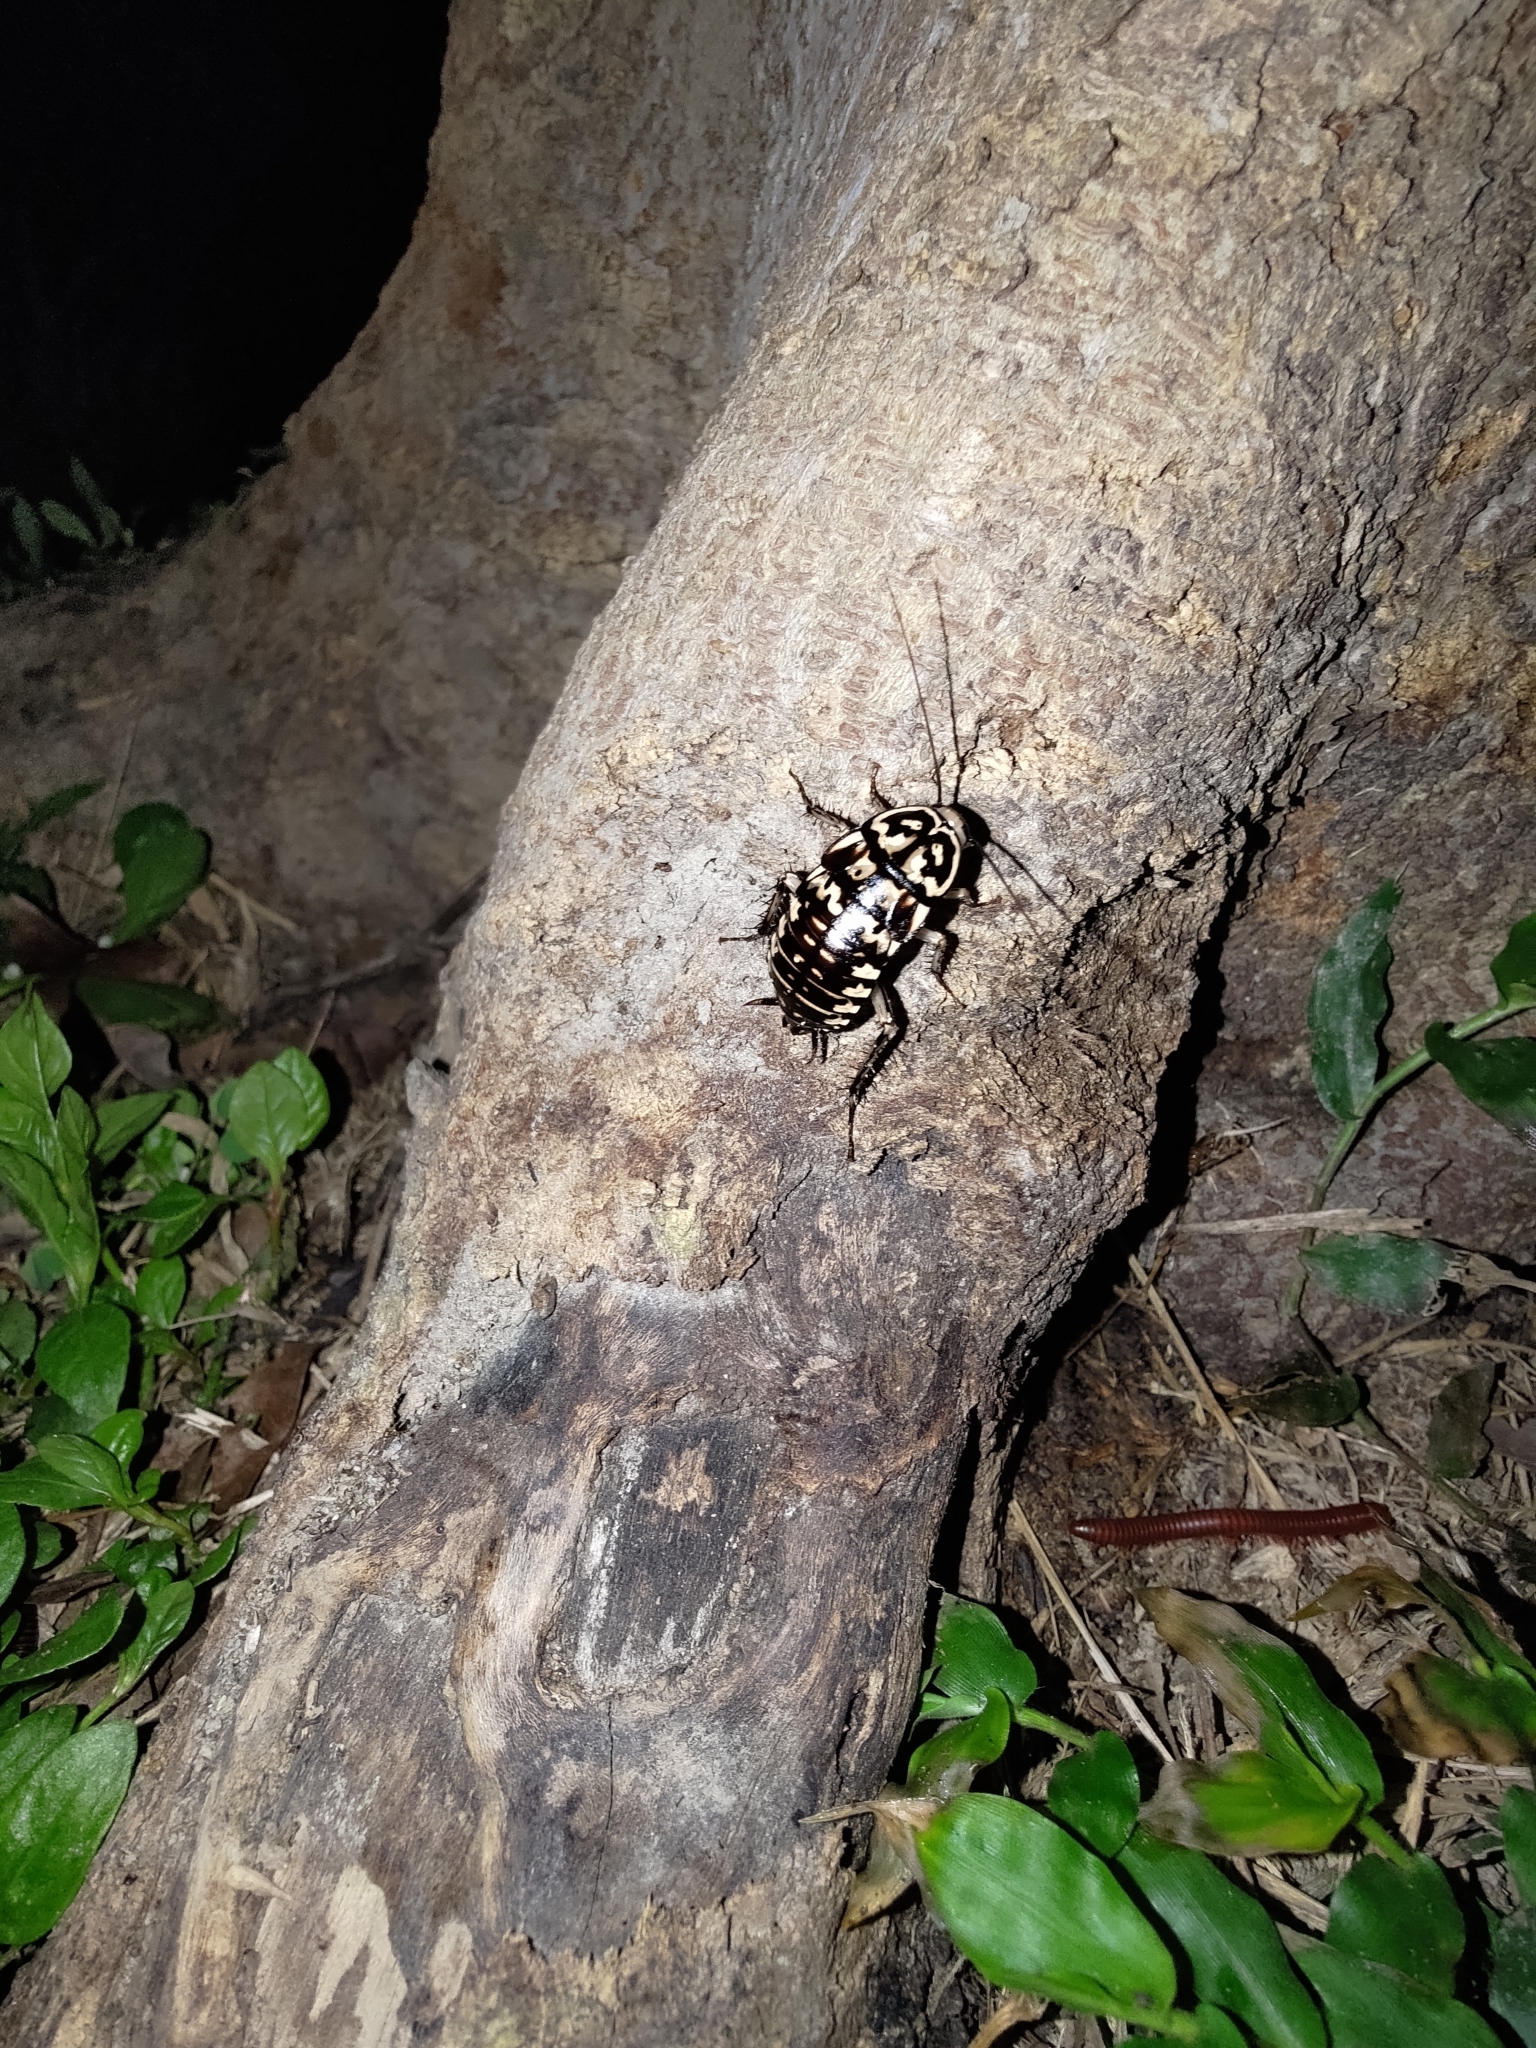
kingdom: Animalia
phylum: Arthropoda
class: Insecta
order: Blattodea
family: Blattidae
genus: Neostylopyga
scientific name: Neostylopyga rhombifolia
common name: Harlequin cockroach
